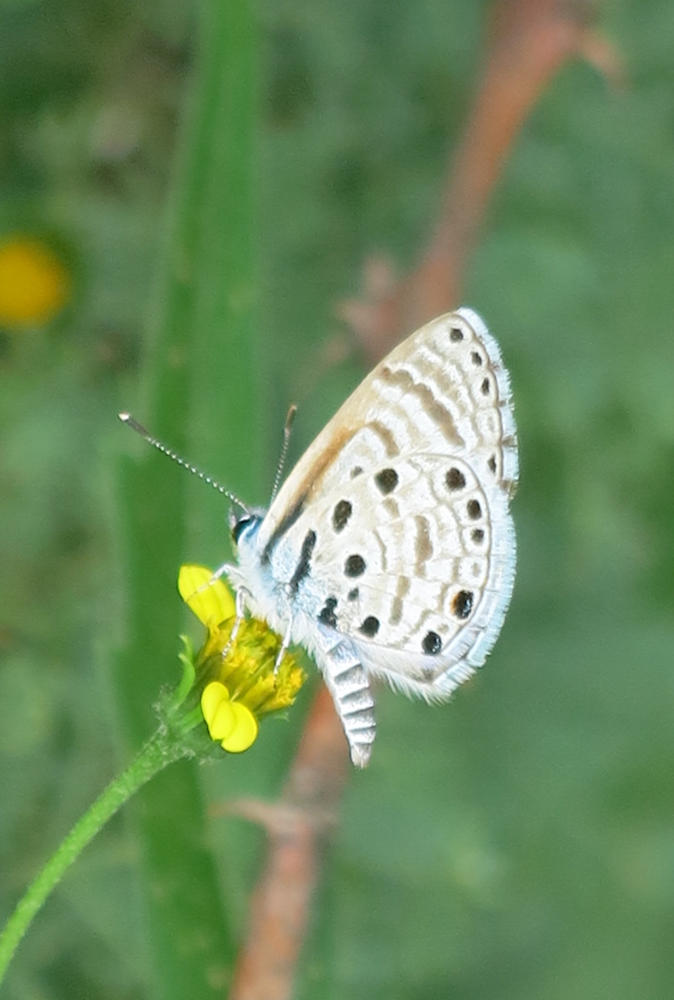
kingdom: Animalia
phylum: Arthropoda
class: Insecta
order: Lepidoptera
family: Lycaenidae
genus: Azanus
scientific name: Azanus jesous
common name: African babul blue
